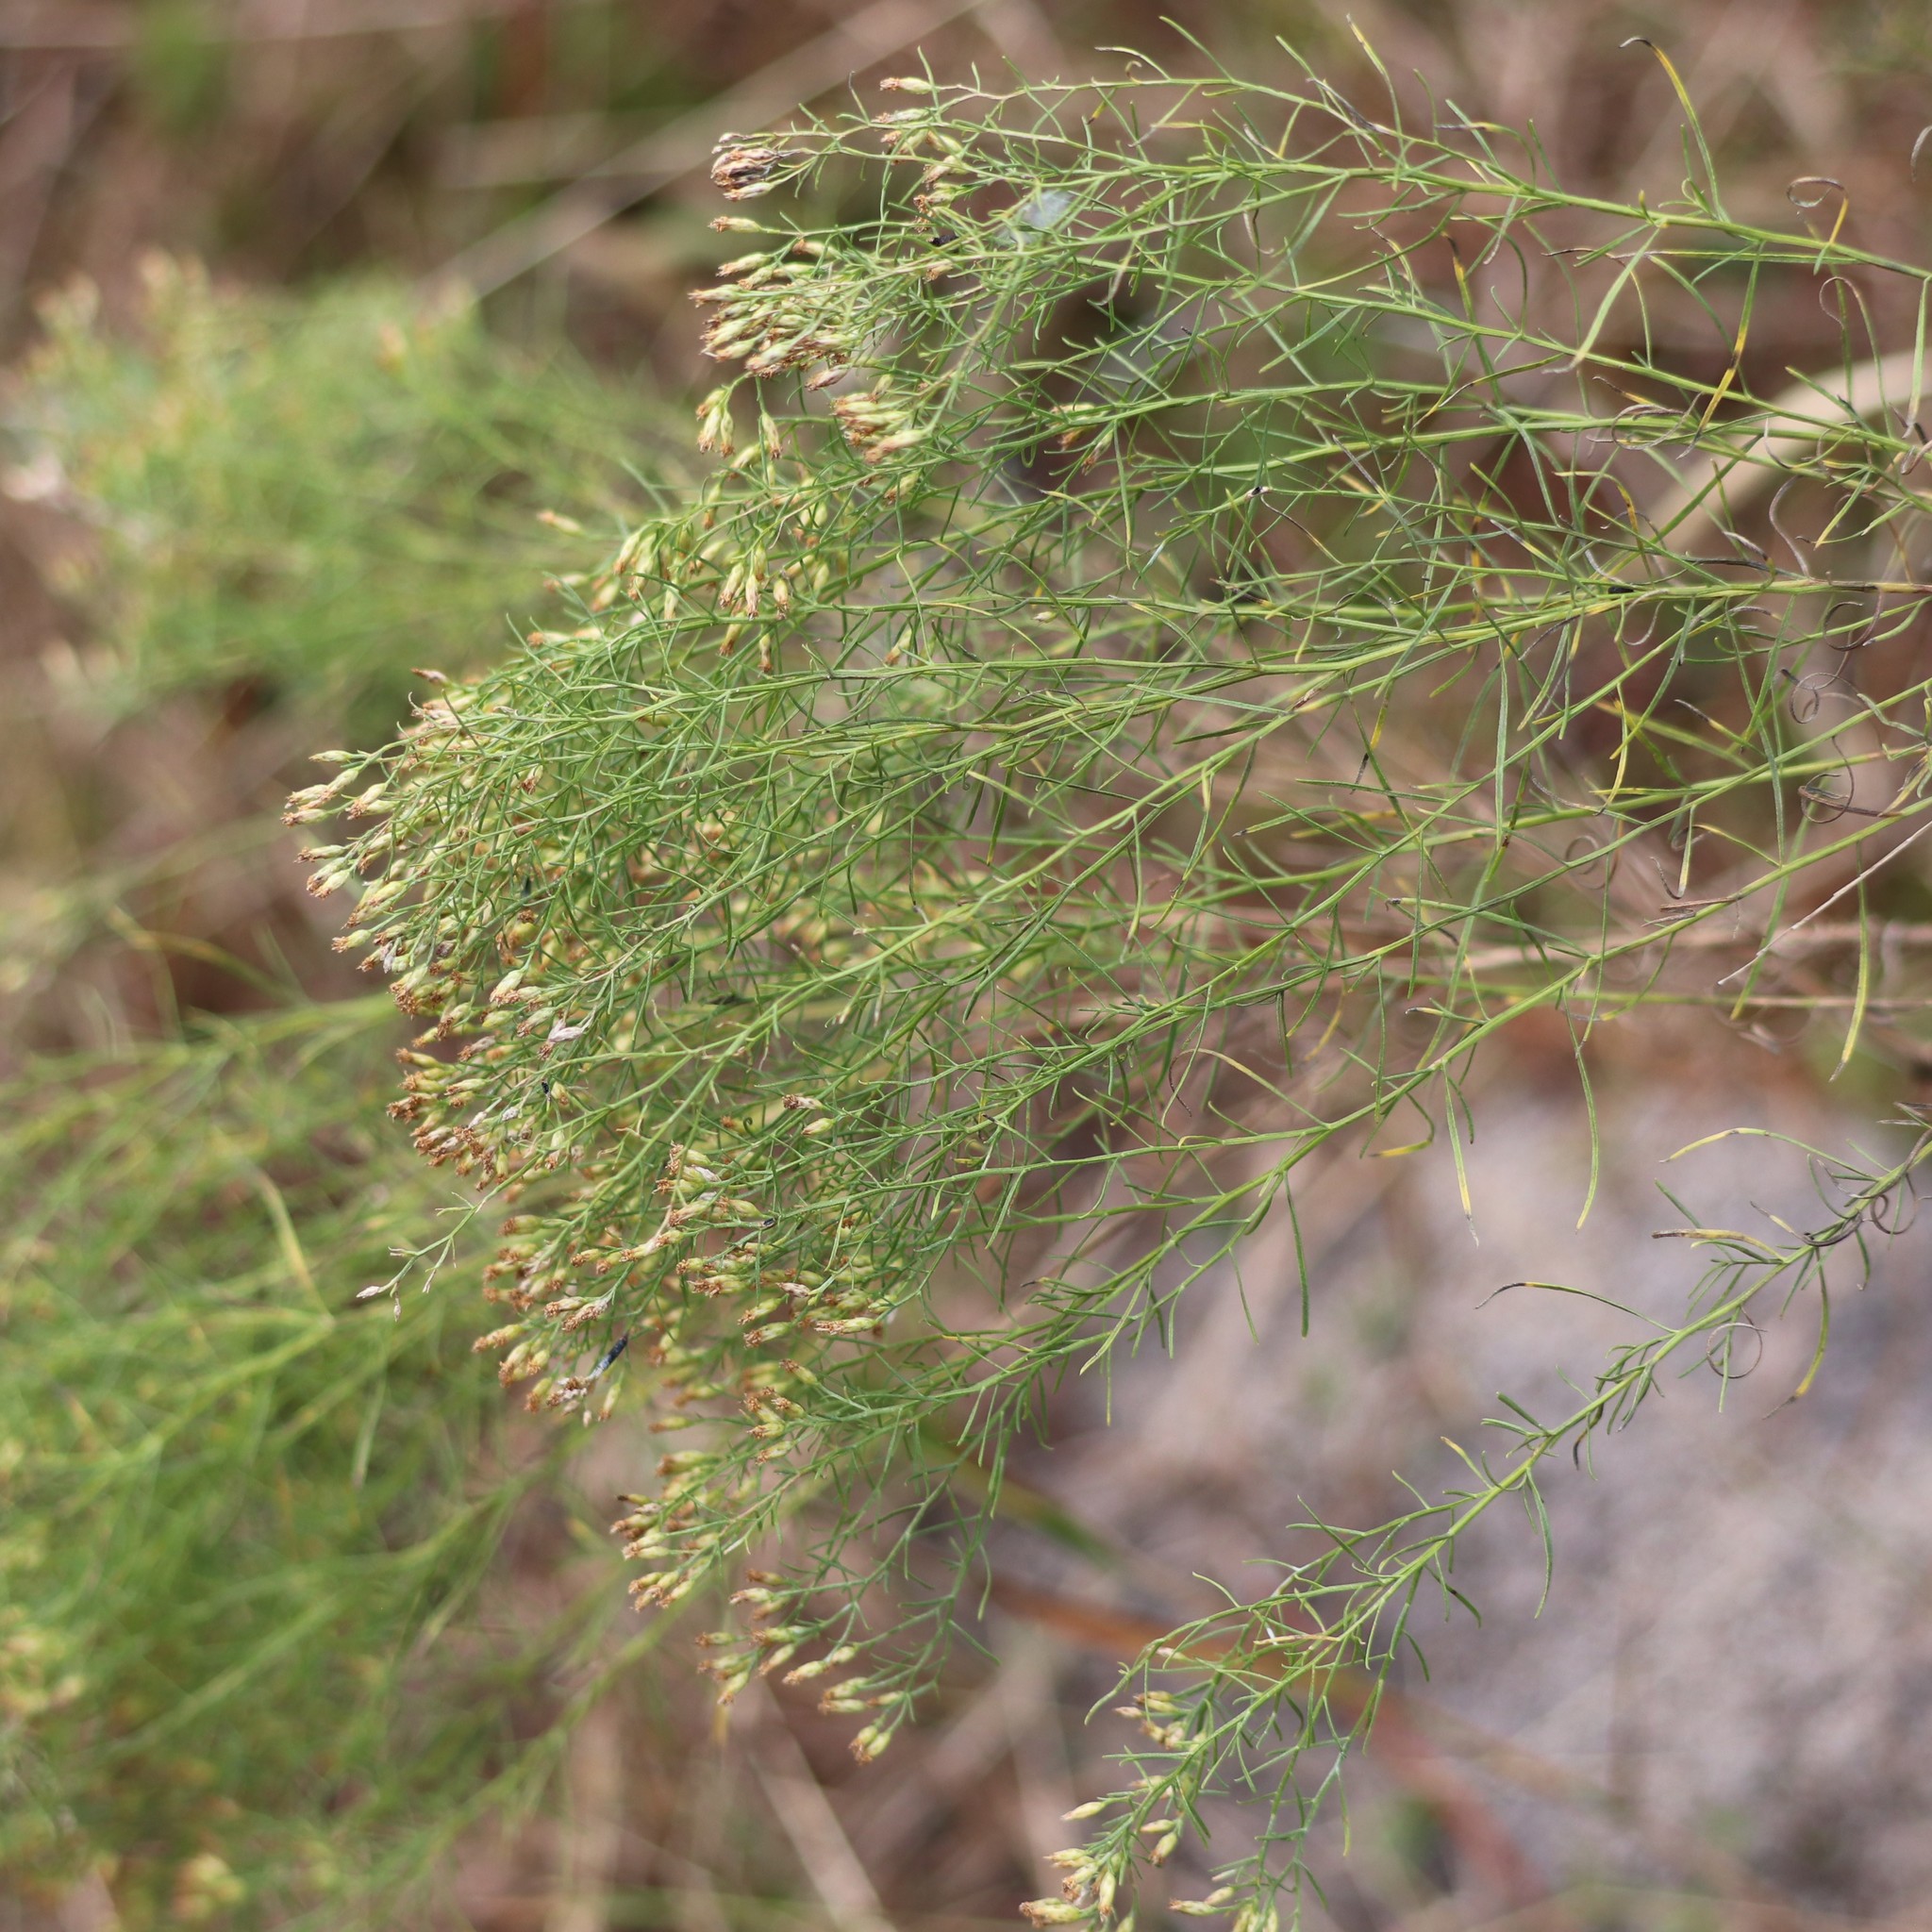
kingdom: Plantae
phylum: Tracheophyta
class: Magnoliopsida
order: Asterales
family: Asteraceae
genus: Euthamia
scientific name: Euthamia caroliniana
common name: Coastal plain goldentop
